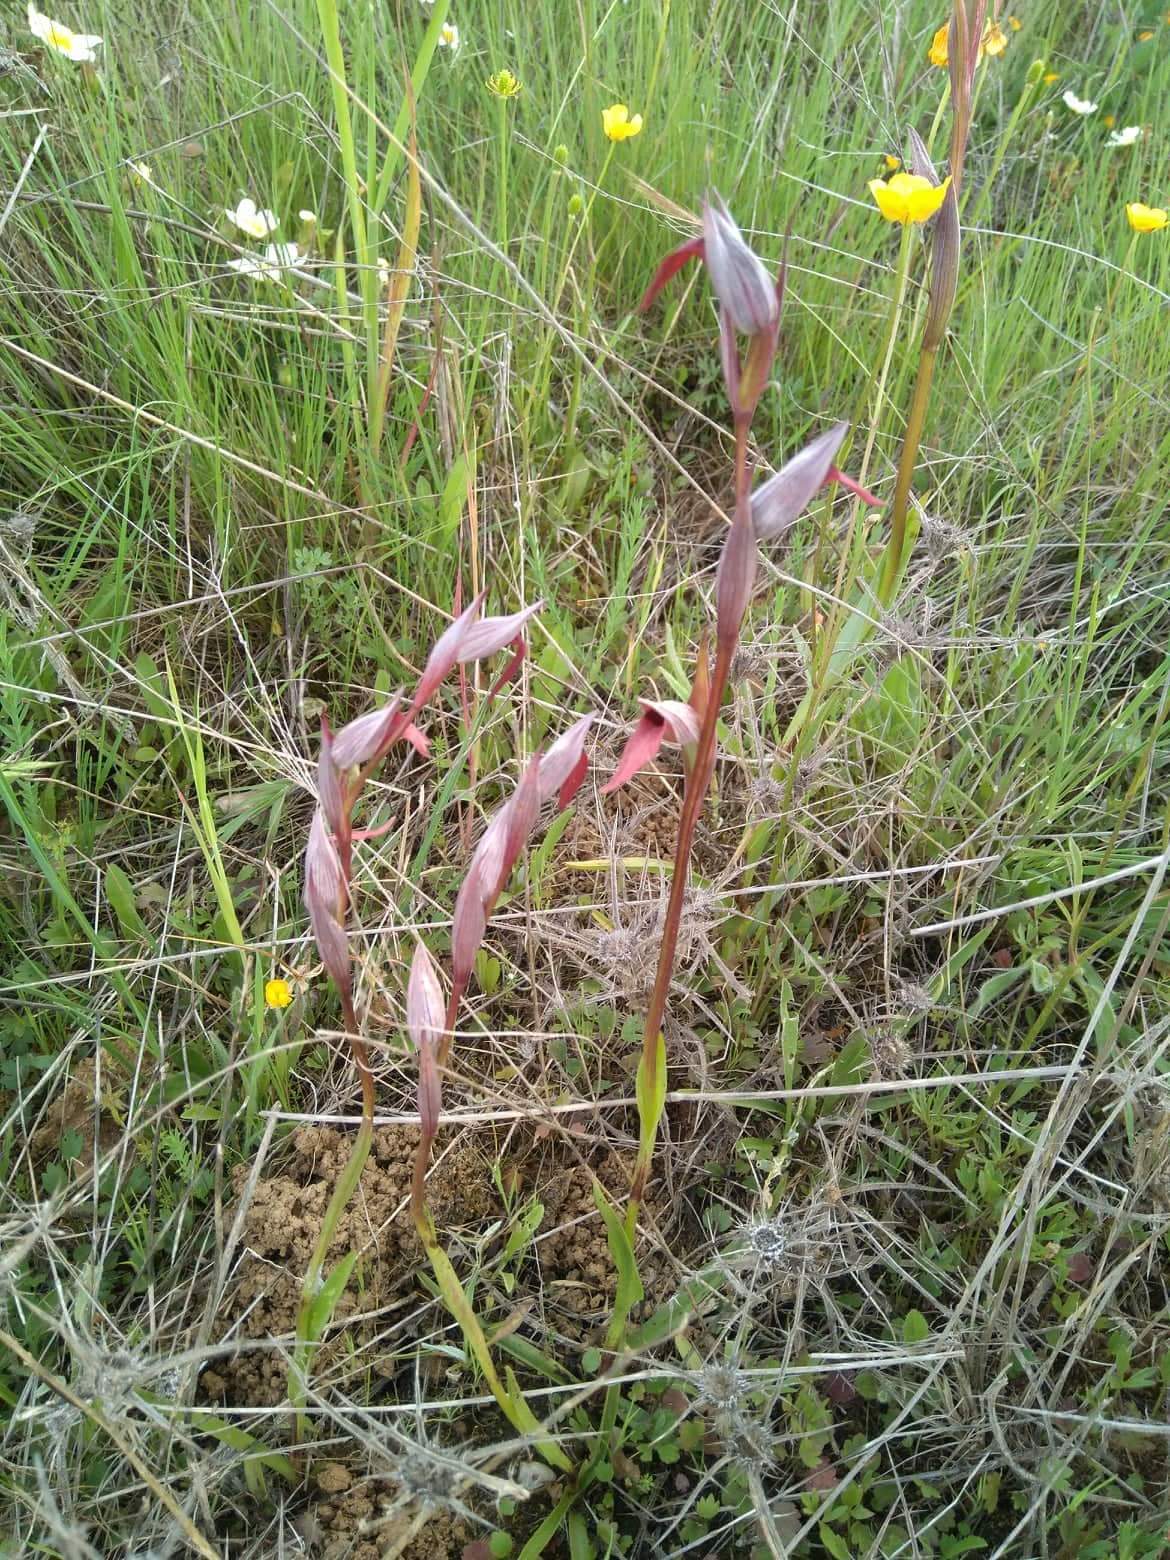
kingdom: Plantae
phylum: Tracheophyta
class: Liliopsida
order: Asparagales
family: Orchidaceae
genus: Serapias
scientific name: Serapias lingua
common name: Tongue-orchid
